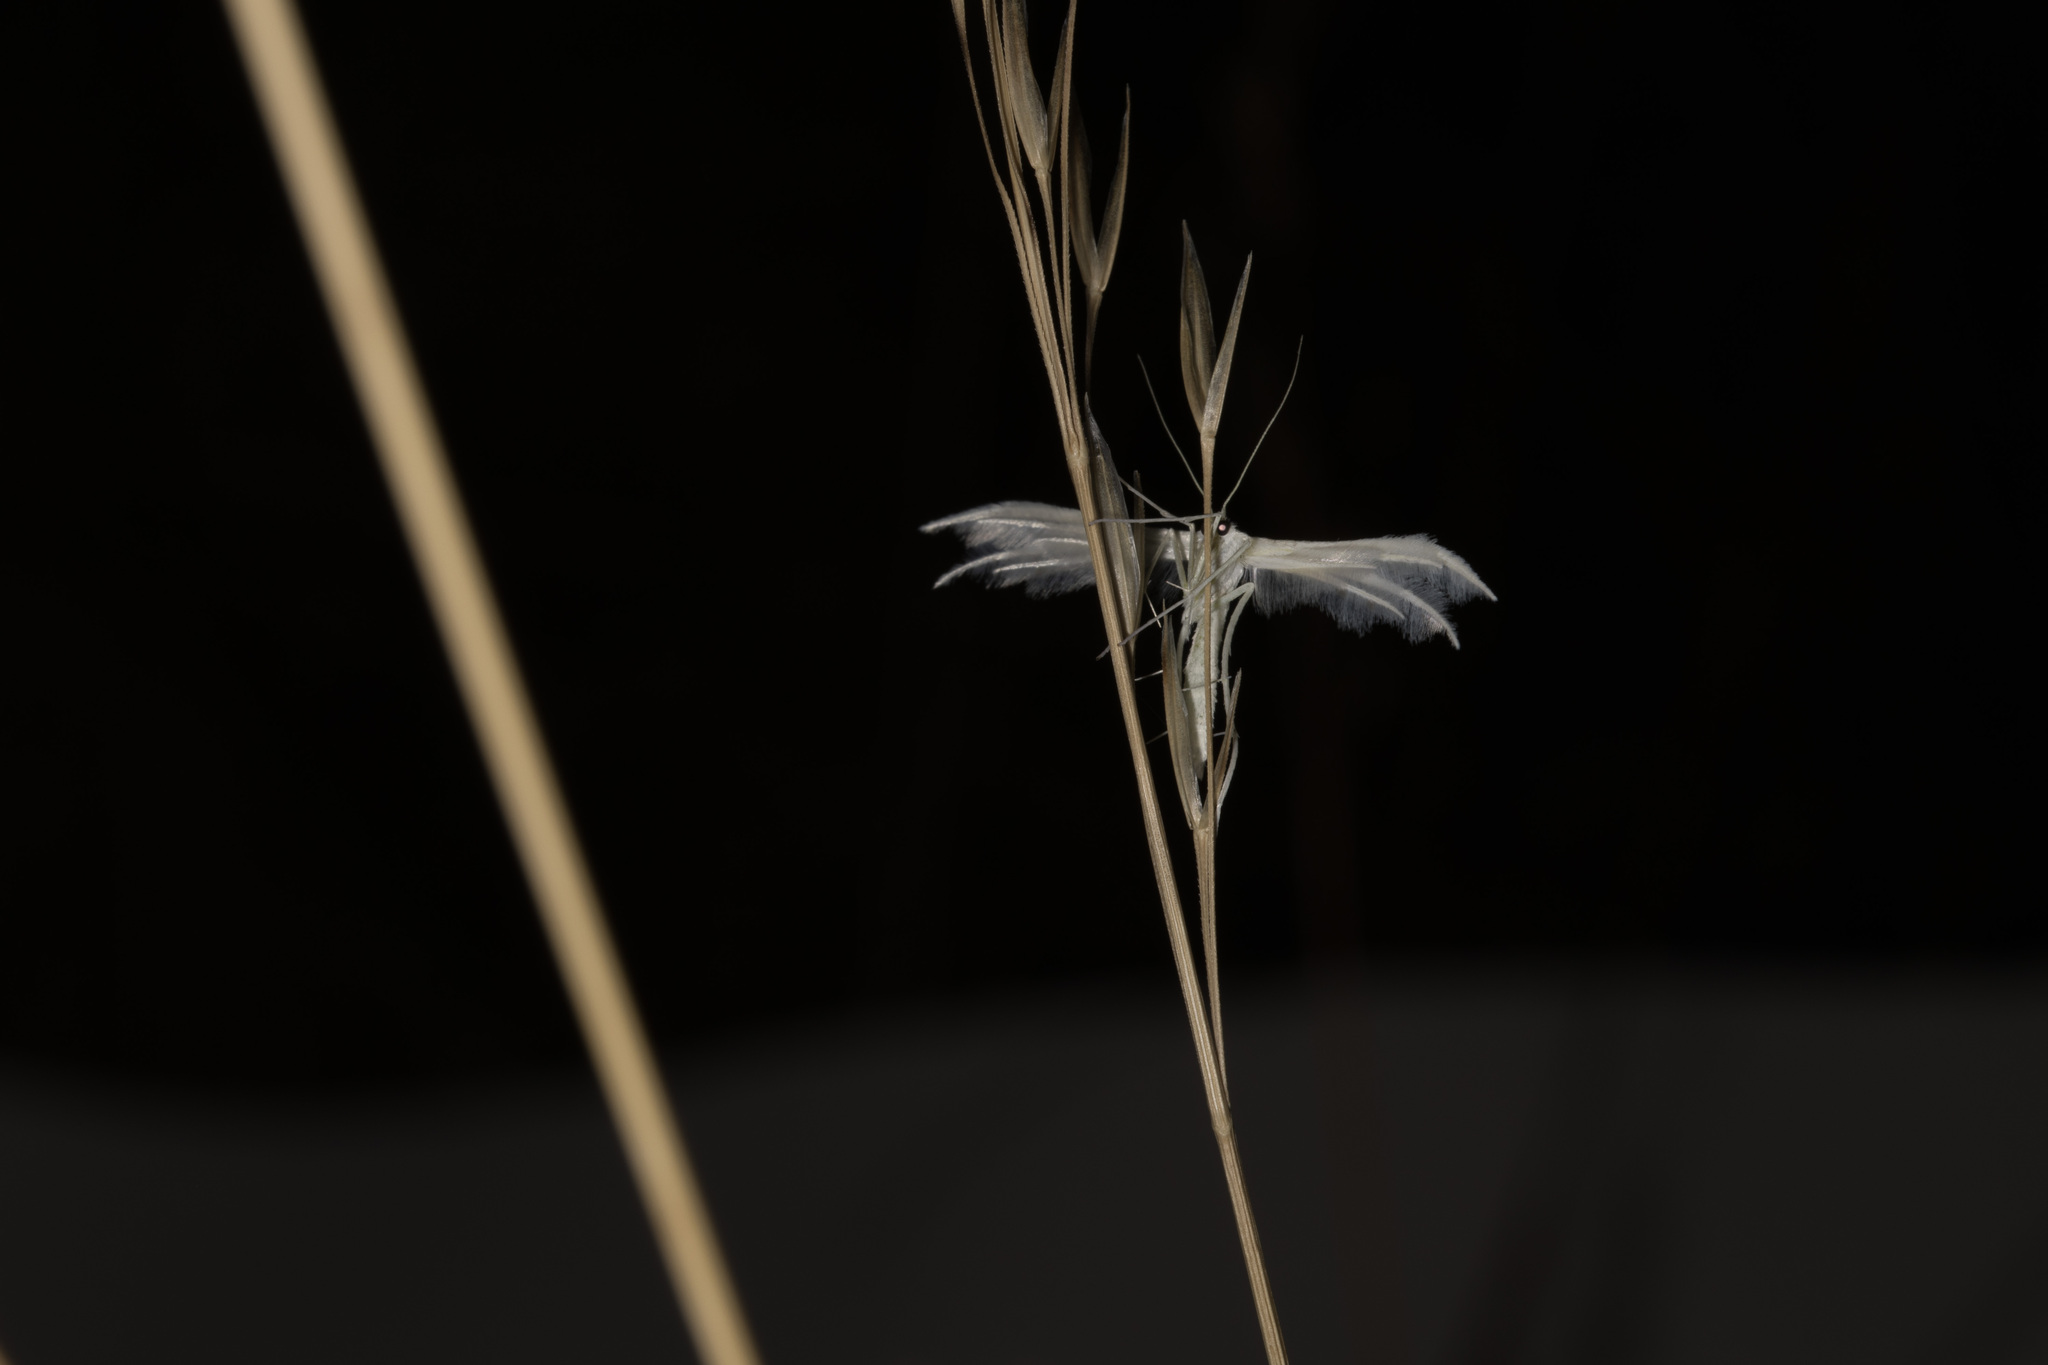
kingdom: Animalia
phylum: Arthropoda
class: Insecta
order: Lepidoptera
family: Pterophoridae
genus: Pterophorus
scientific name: Pterophorus pentadactyla
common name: White plume moth
